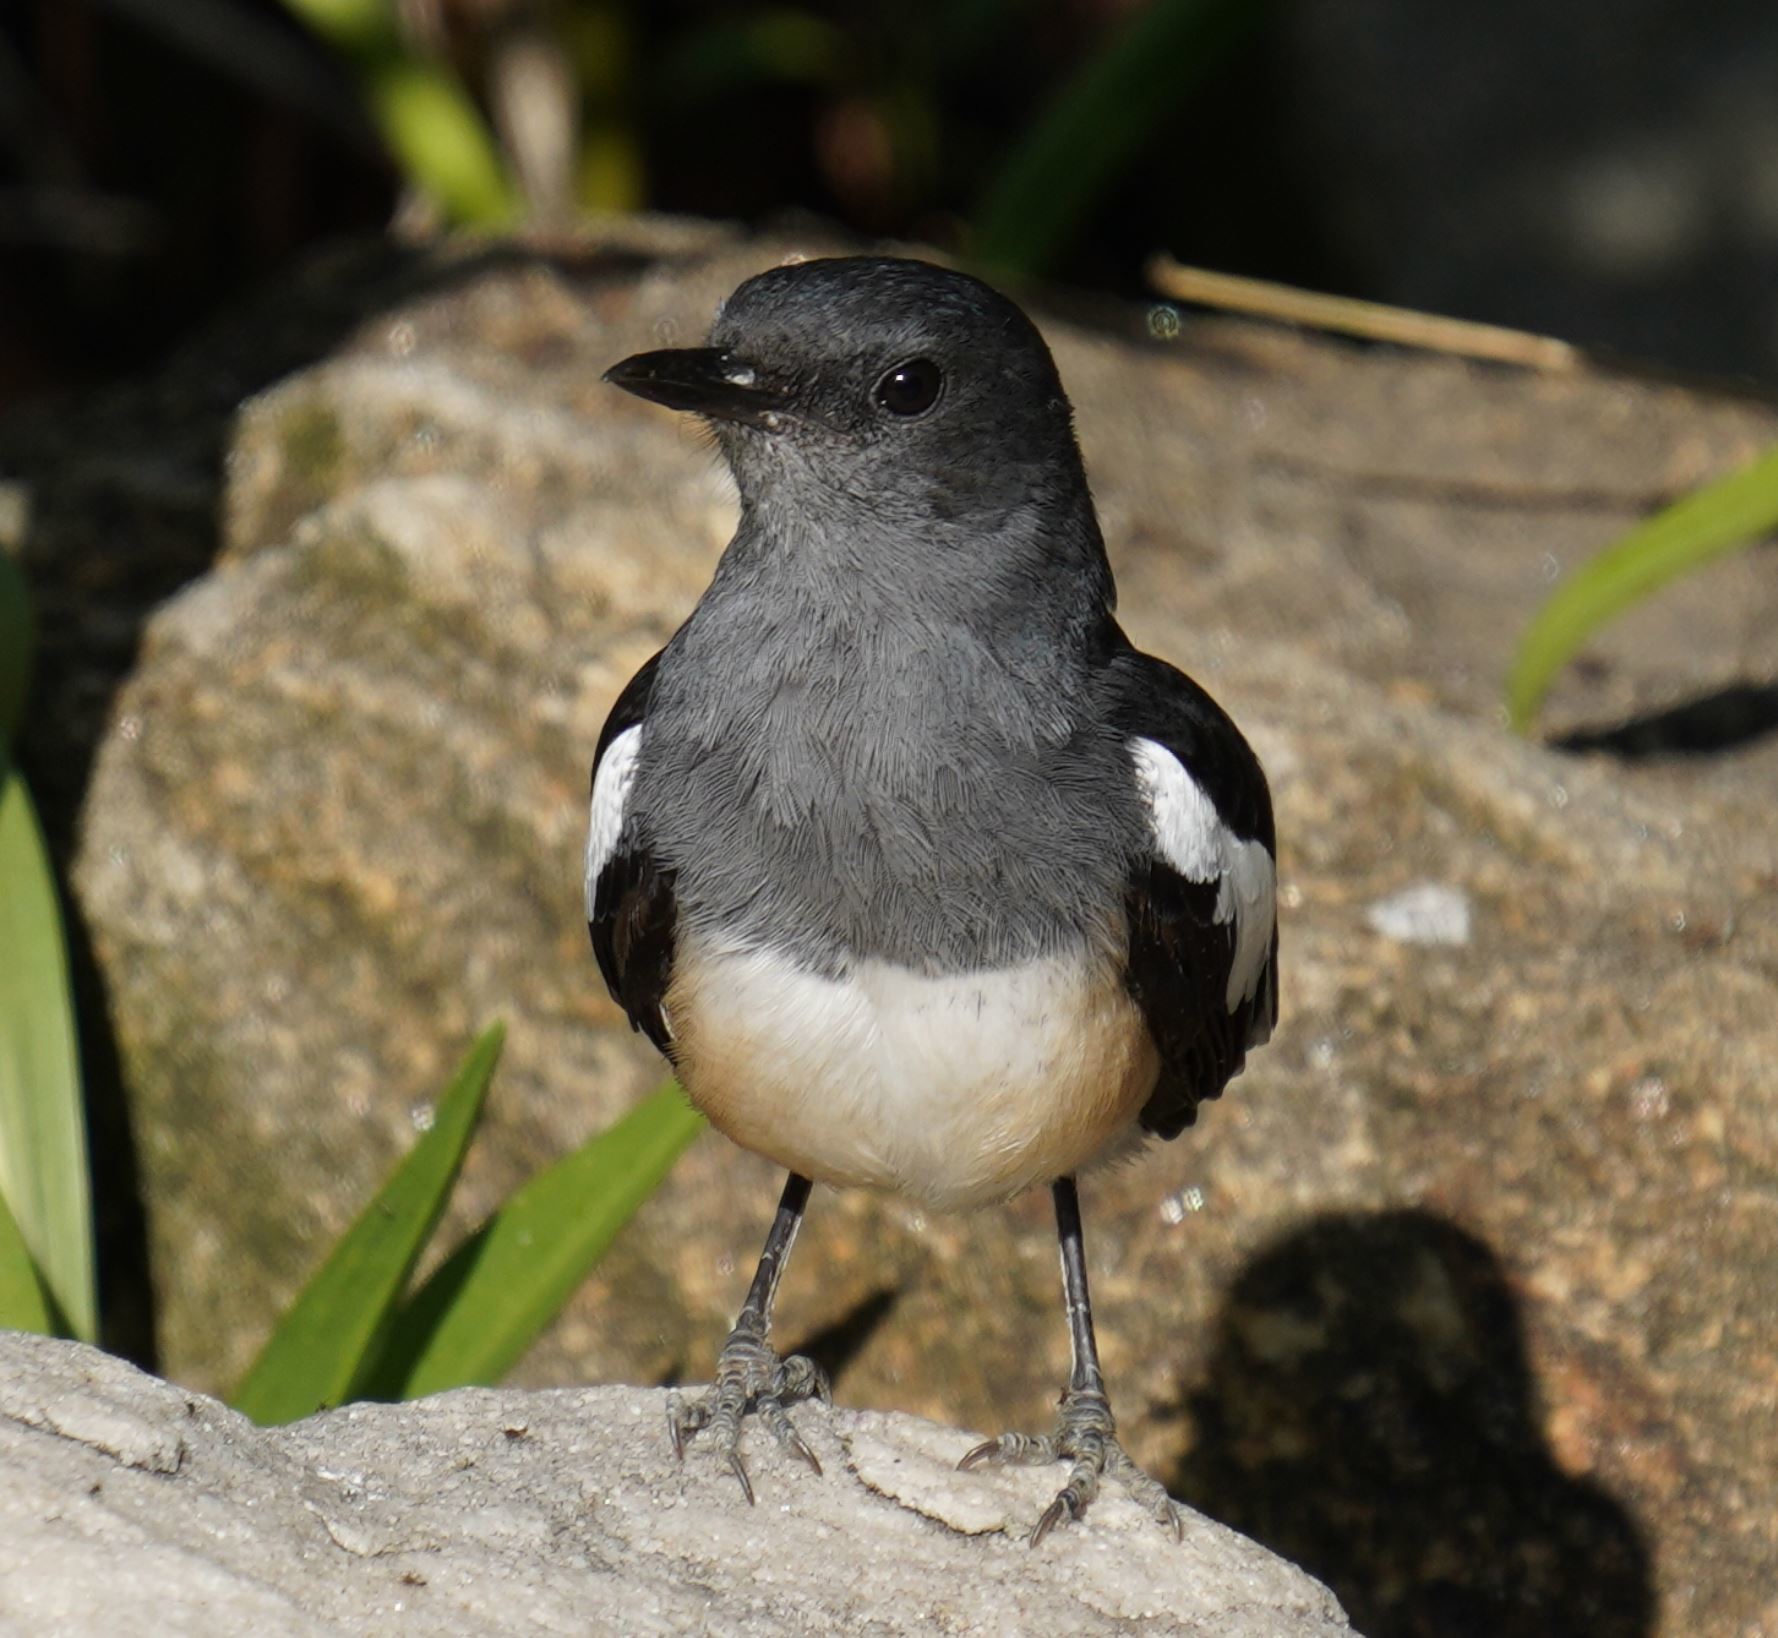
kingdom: Animalia
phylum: Chordata
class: Aves
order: Passeriformes
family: Muscicapidae
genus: Copsychus
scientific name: Copsychus saularis
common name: Oriental magpie-robin
